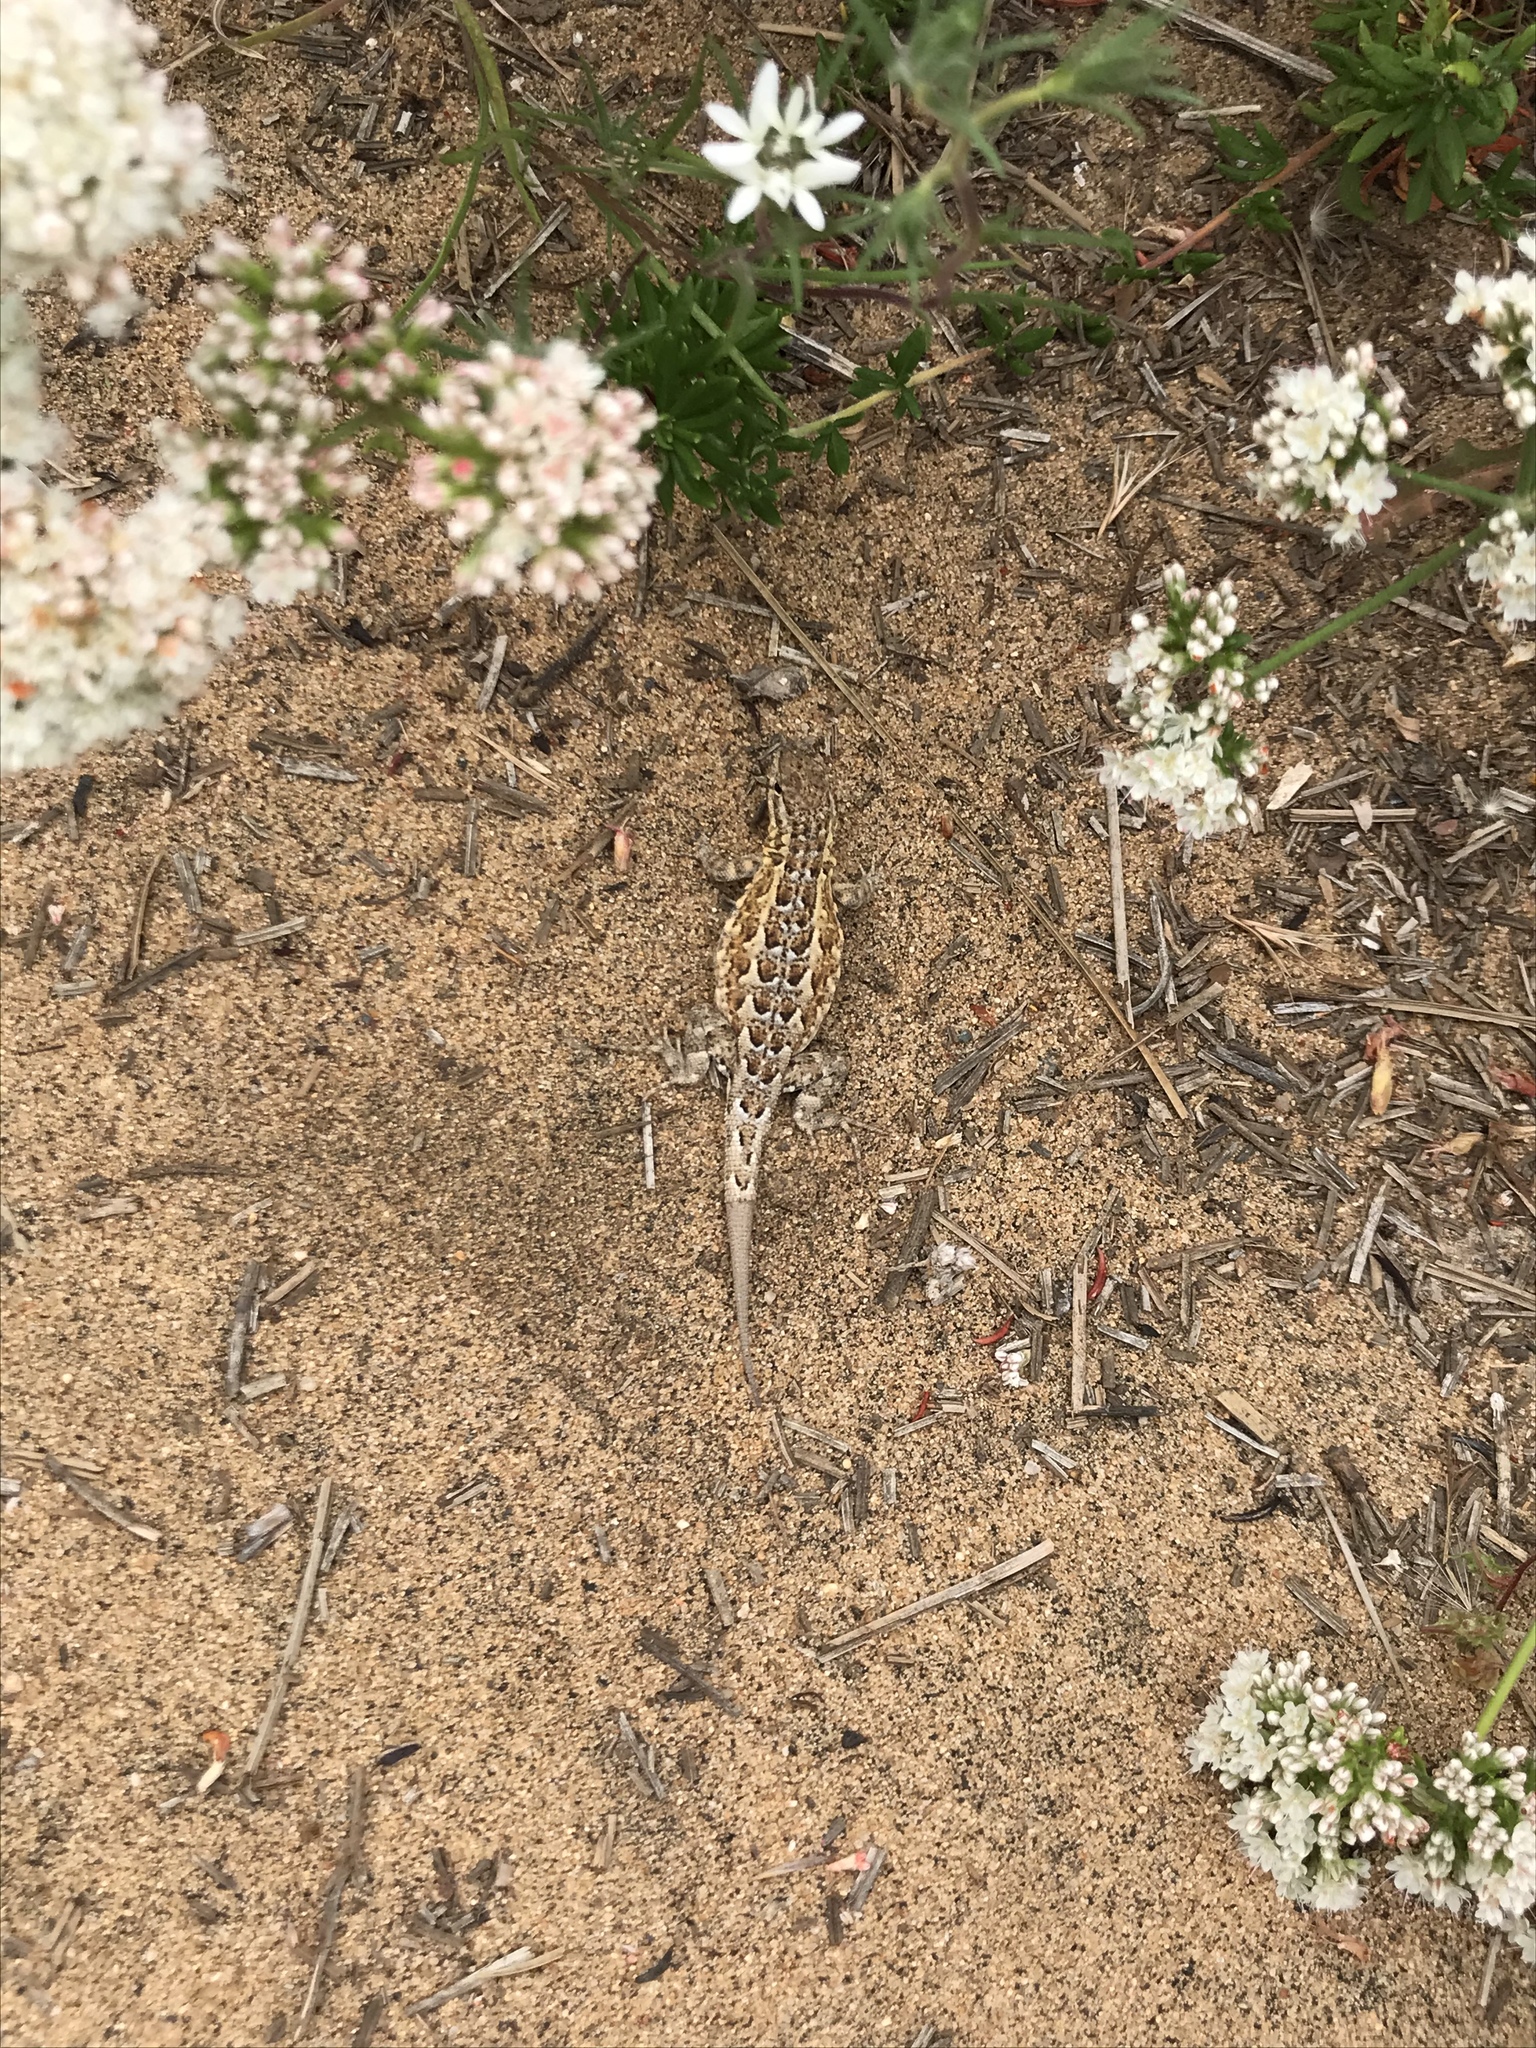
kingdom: Animalia
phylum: Chordata
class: Squamata
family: Phrynosomatidae
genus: Uta
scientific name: Uta stansburiana
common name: Side-blotched lizard
